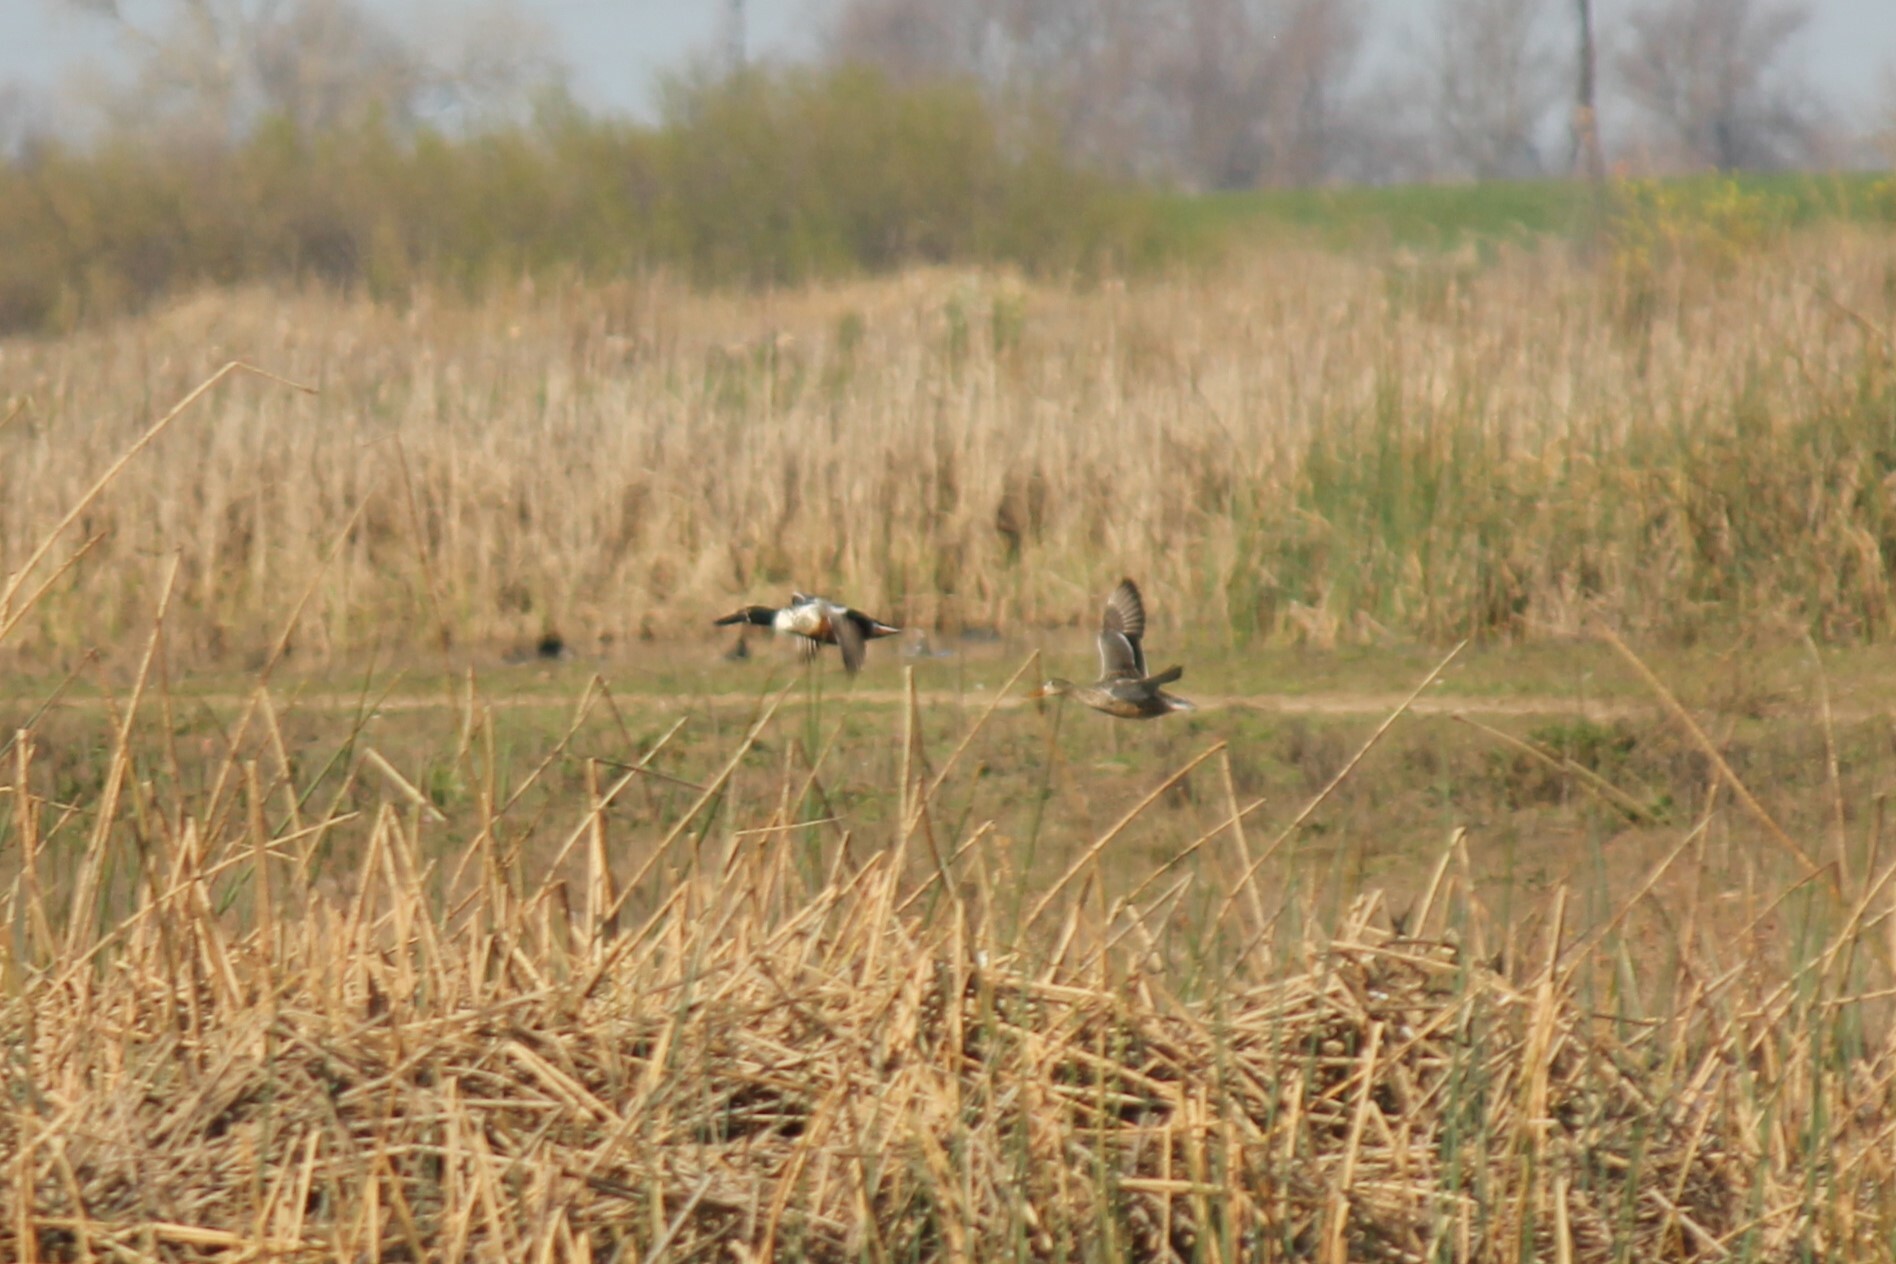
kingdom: Animalia
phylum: Chordata
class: Aves
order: Anseriformes
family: Anatidae
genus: Spatula
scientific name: Spatula clypeata
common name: Northern shoveler
